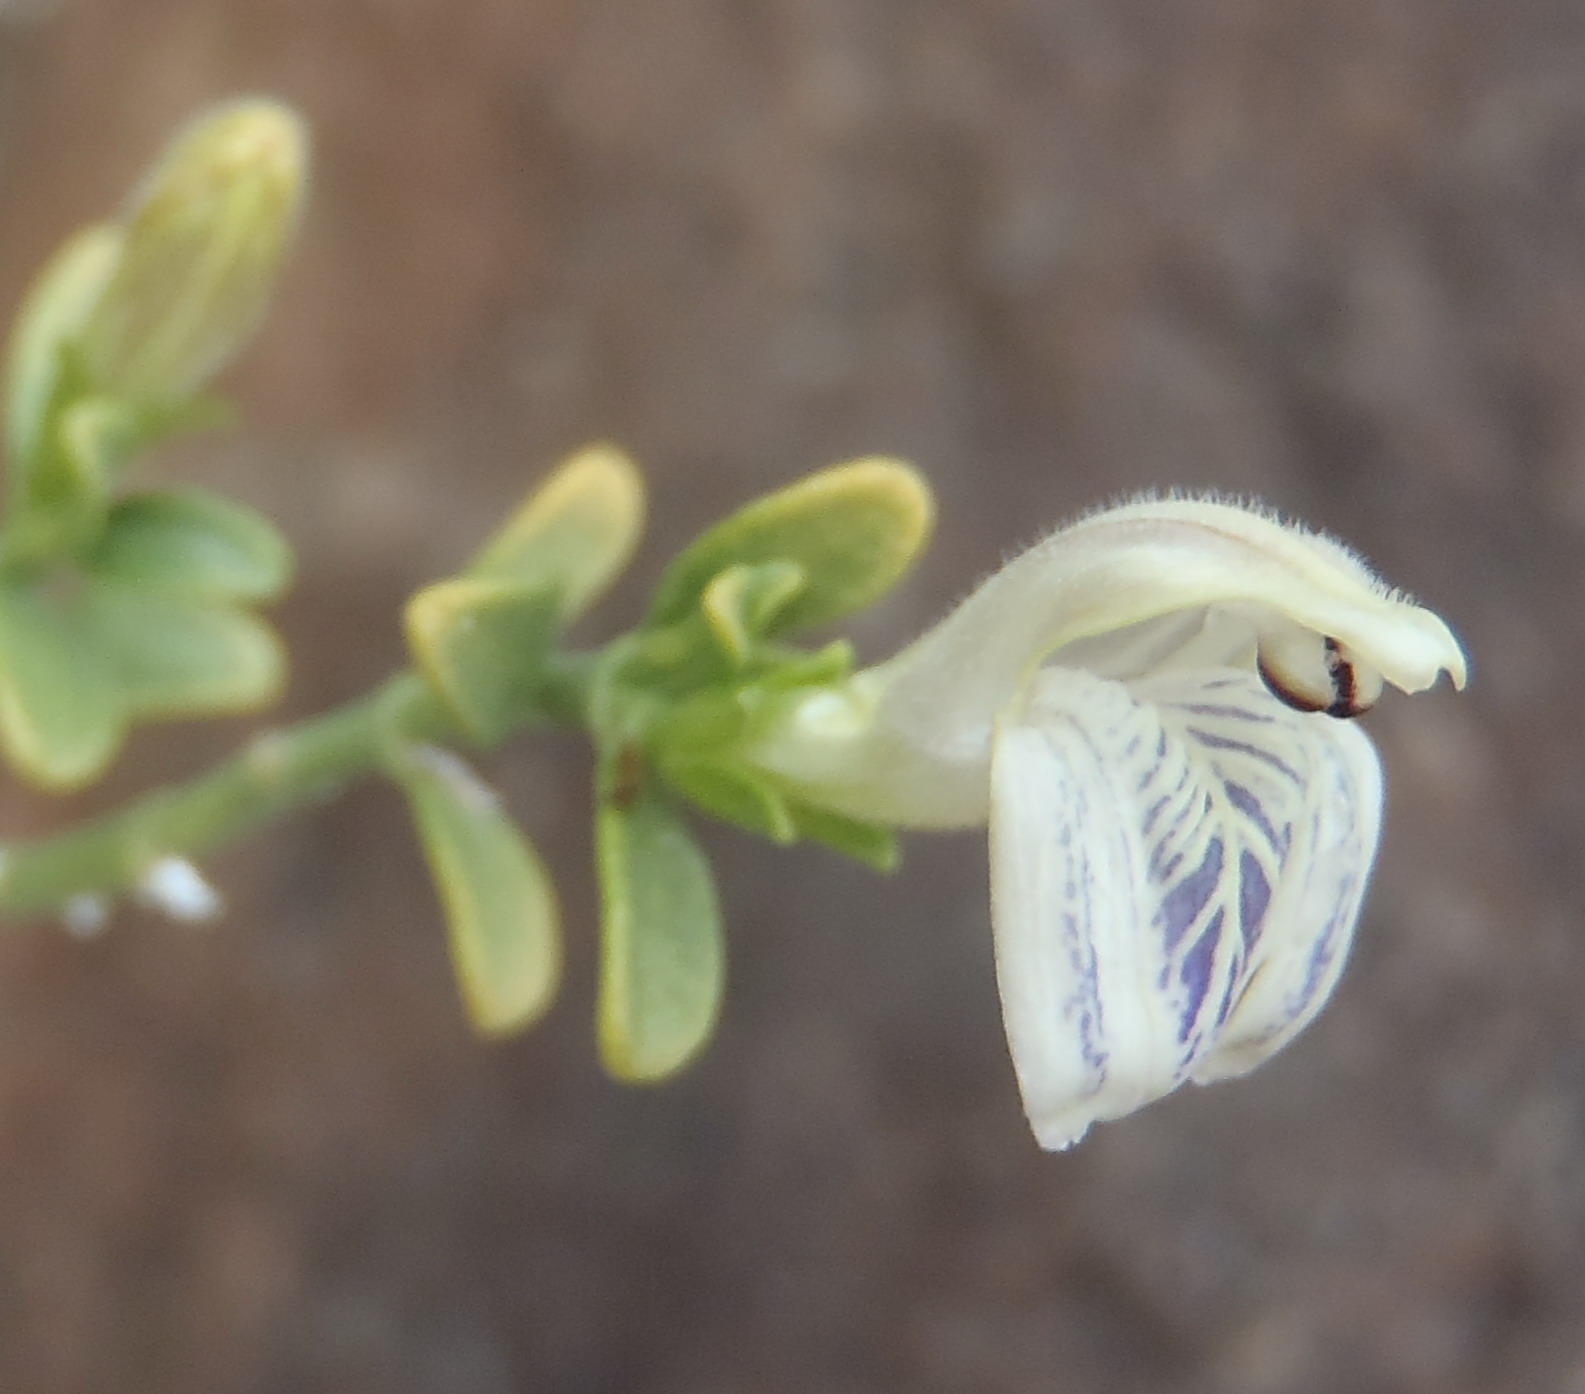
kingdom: Plantae
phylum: Tracheophyta
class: Magnoliopsida
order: Lamiales
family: Acanthaceae
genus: Pogonospermum
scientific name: Pogonospermum
